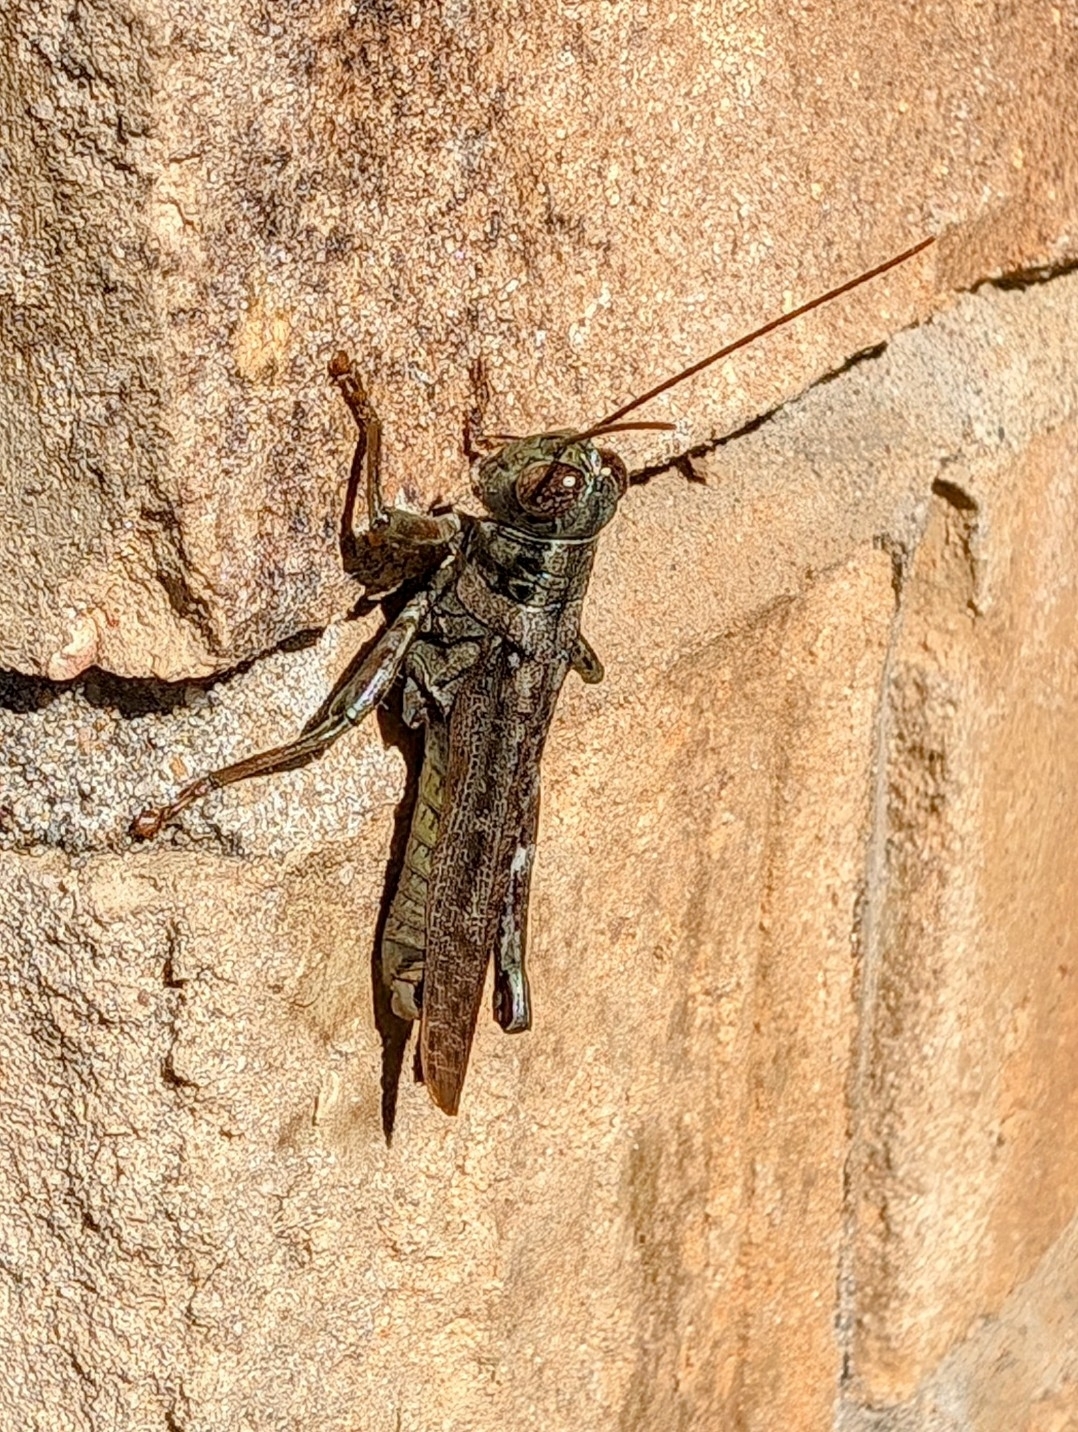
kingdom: Animalia
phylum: Arthropoda
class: Insecta
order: Orthoptera
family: Acrididae
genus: Melanoplus
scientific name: Melanoplus punctulatus
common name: Pine-tree spur-throat grasshopper
